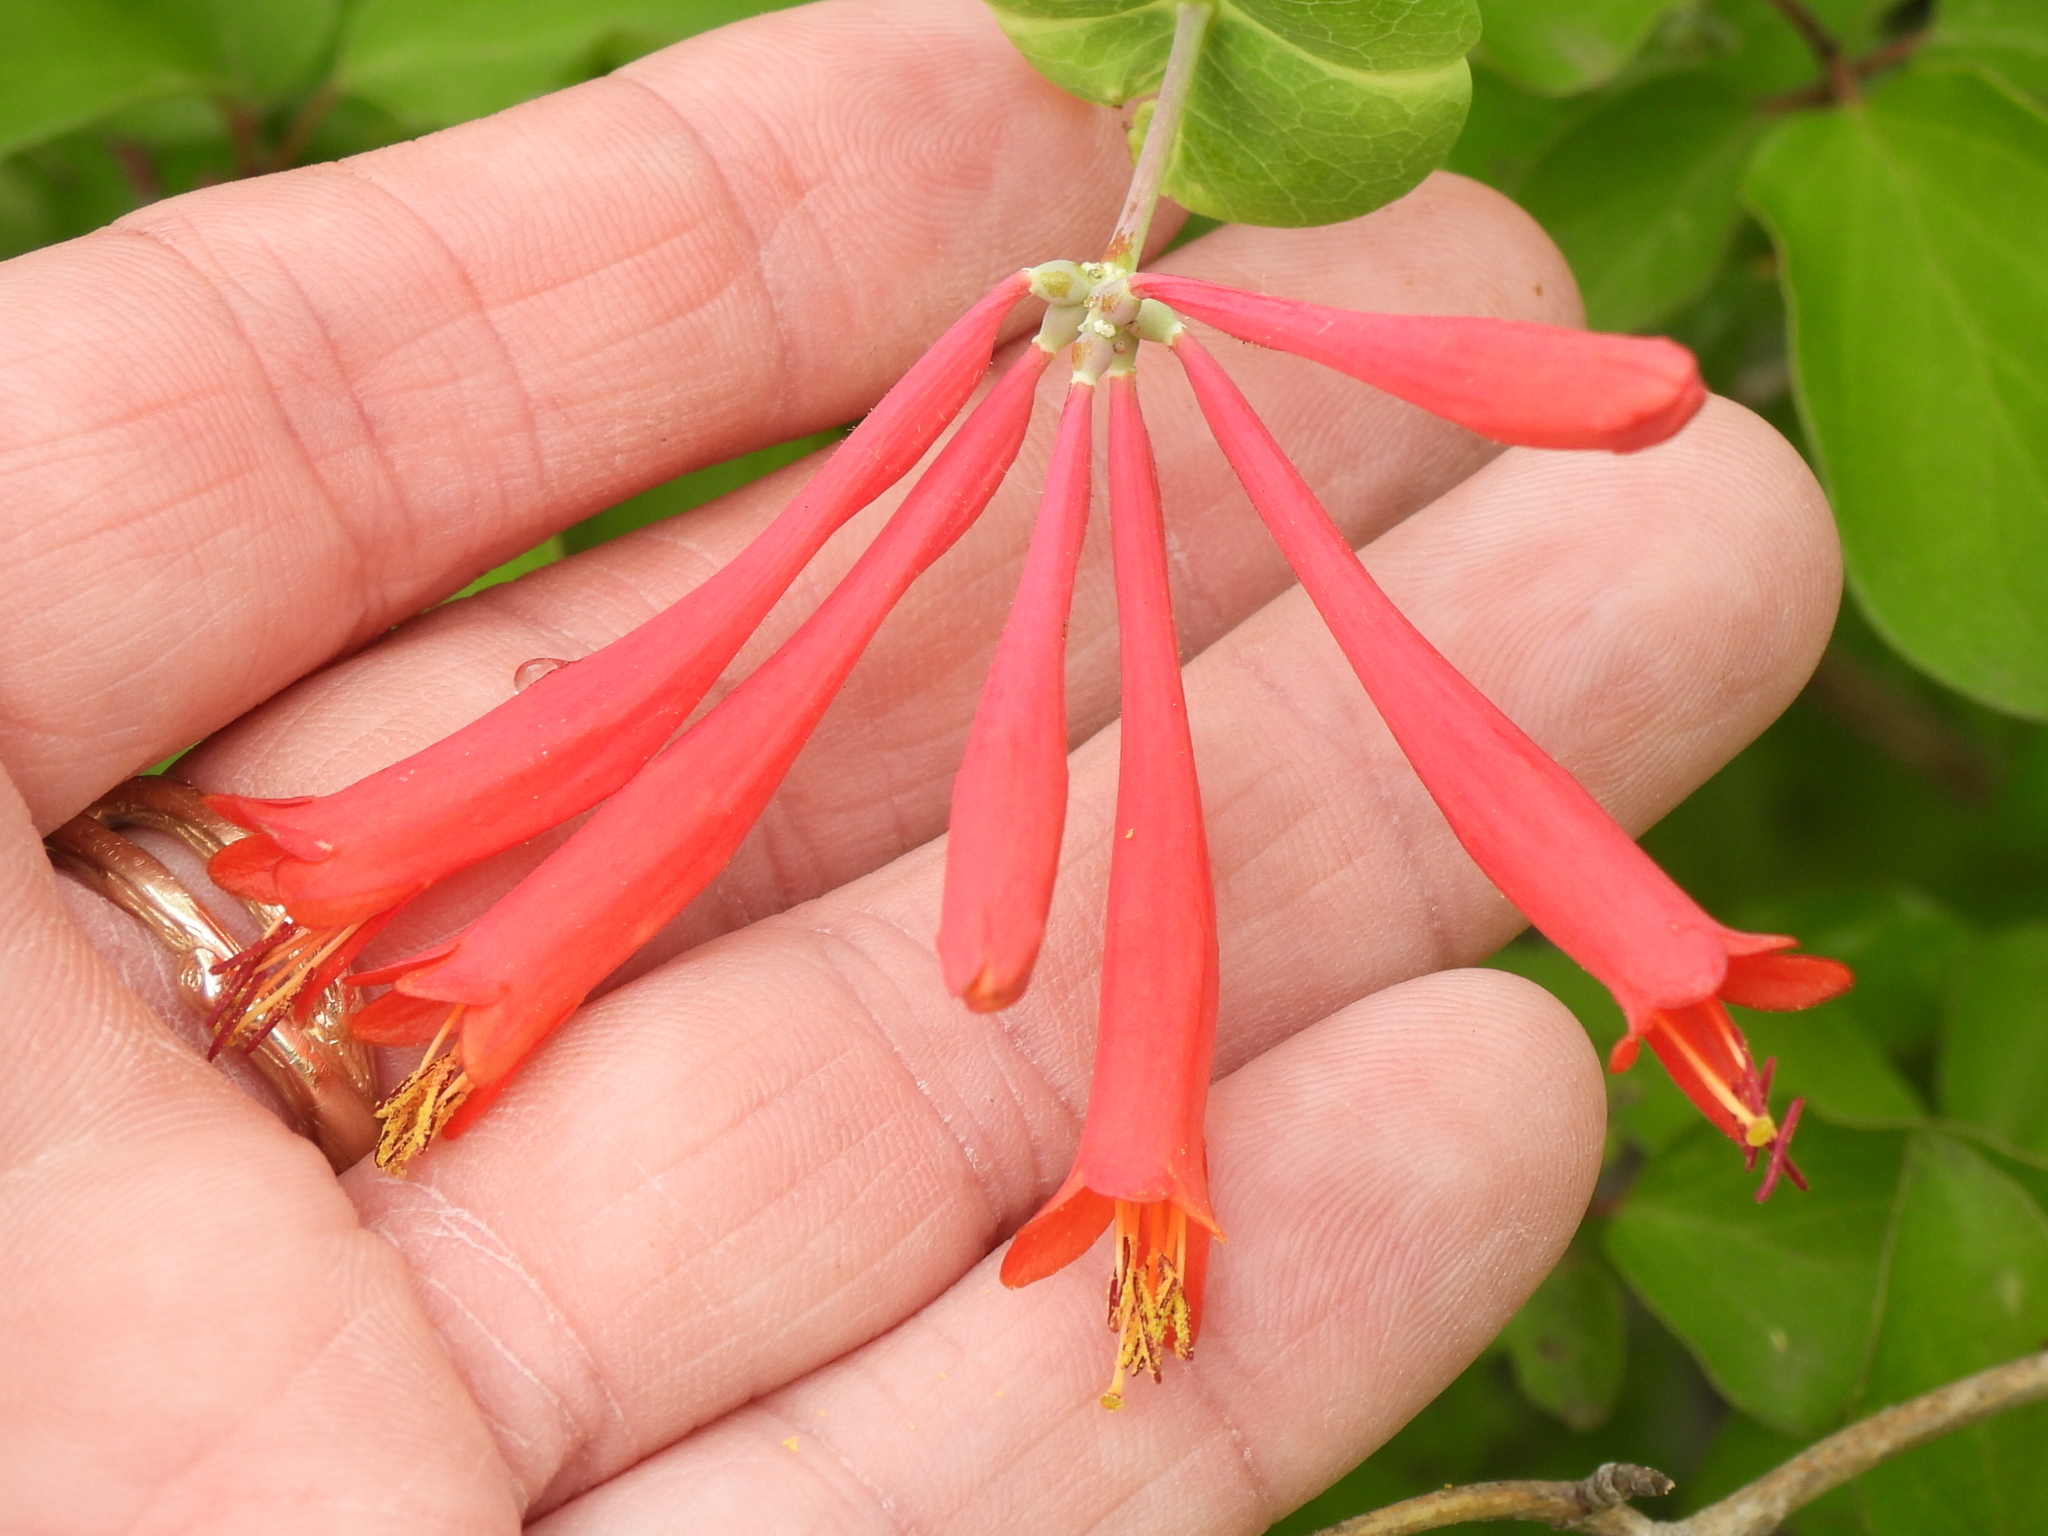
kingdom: Plantae
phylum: Tracheophyta
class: Magnoliopsida
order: Dipsacales
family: Caprifoliaceae
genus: Lonicera
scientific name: Lonicera sempervirens
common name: Coral honeysuckle
